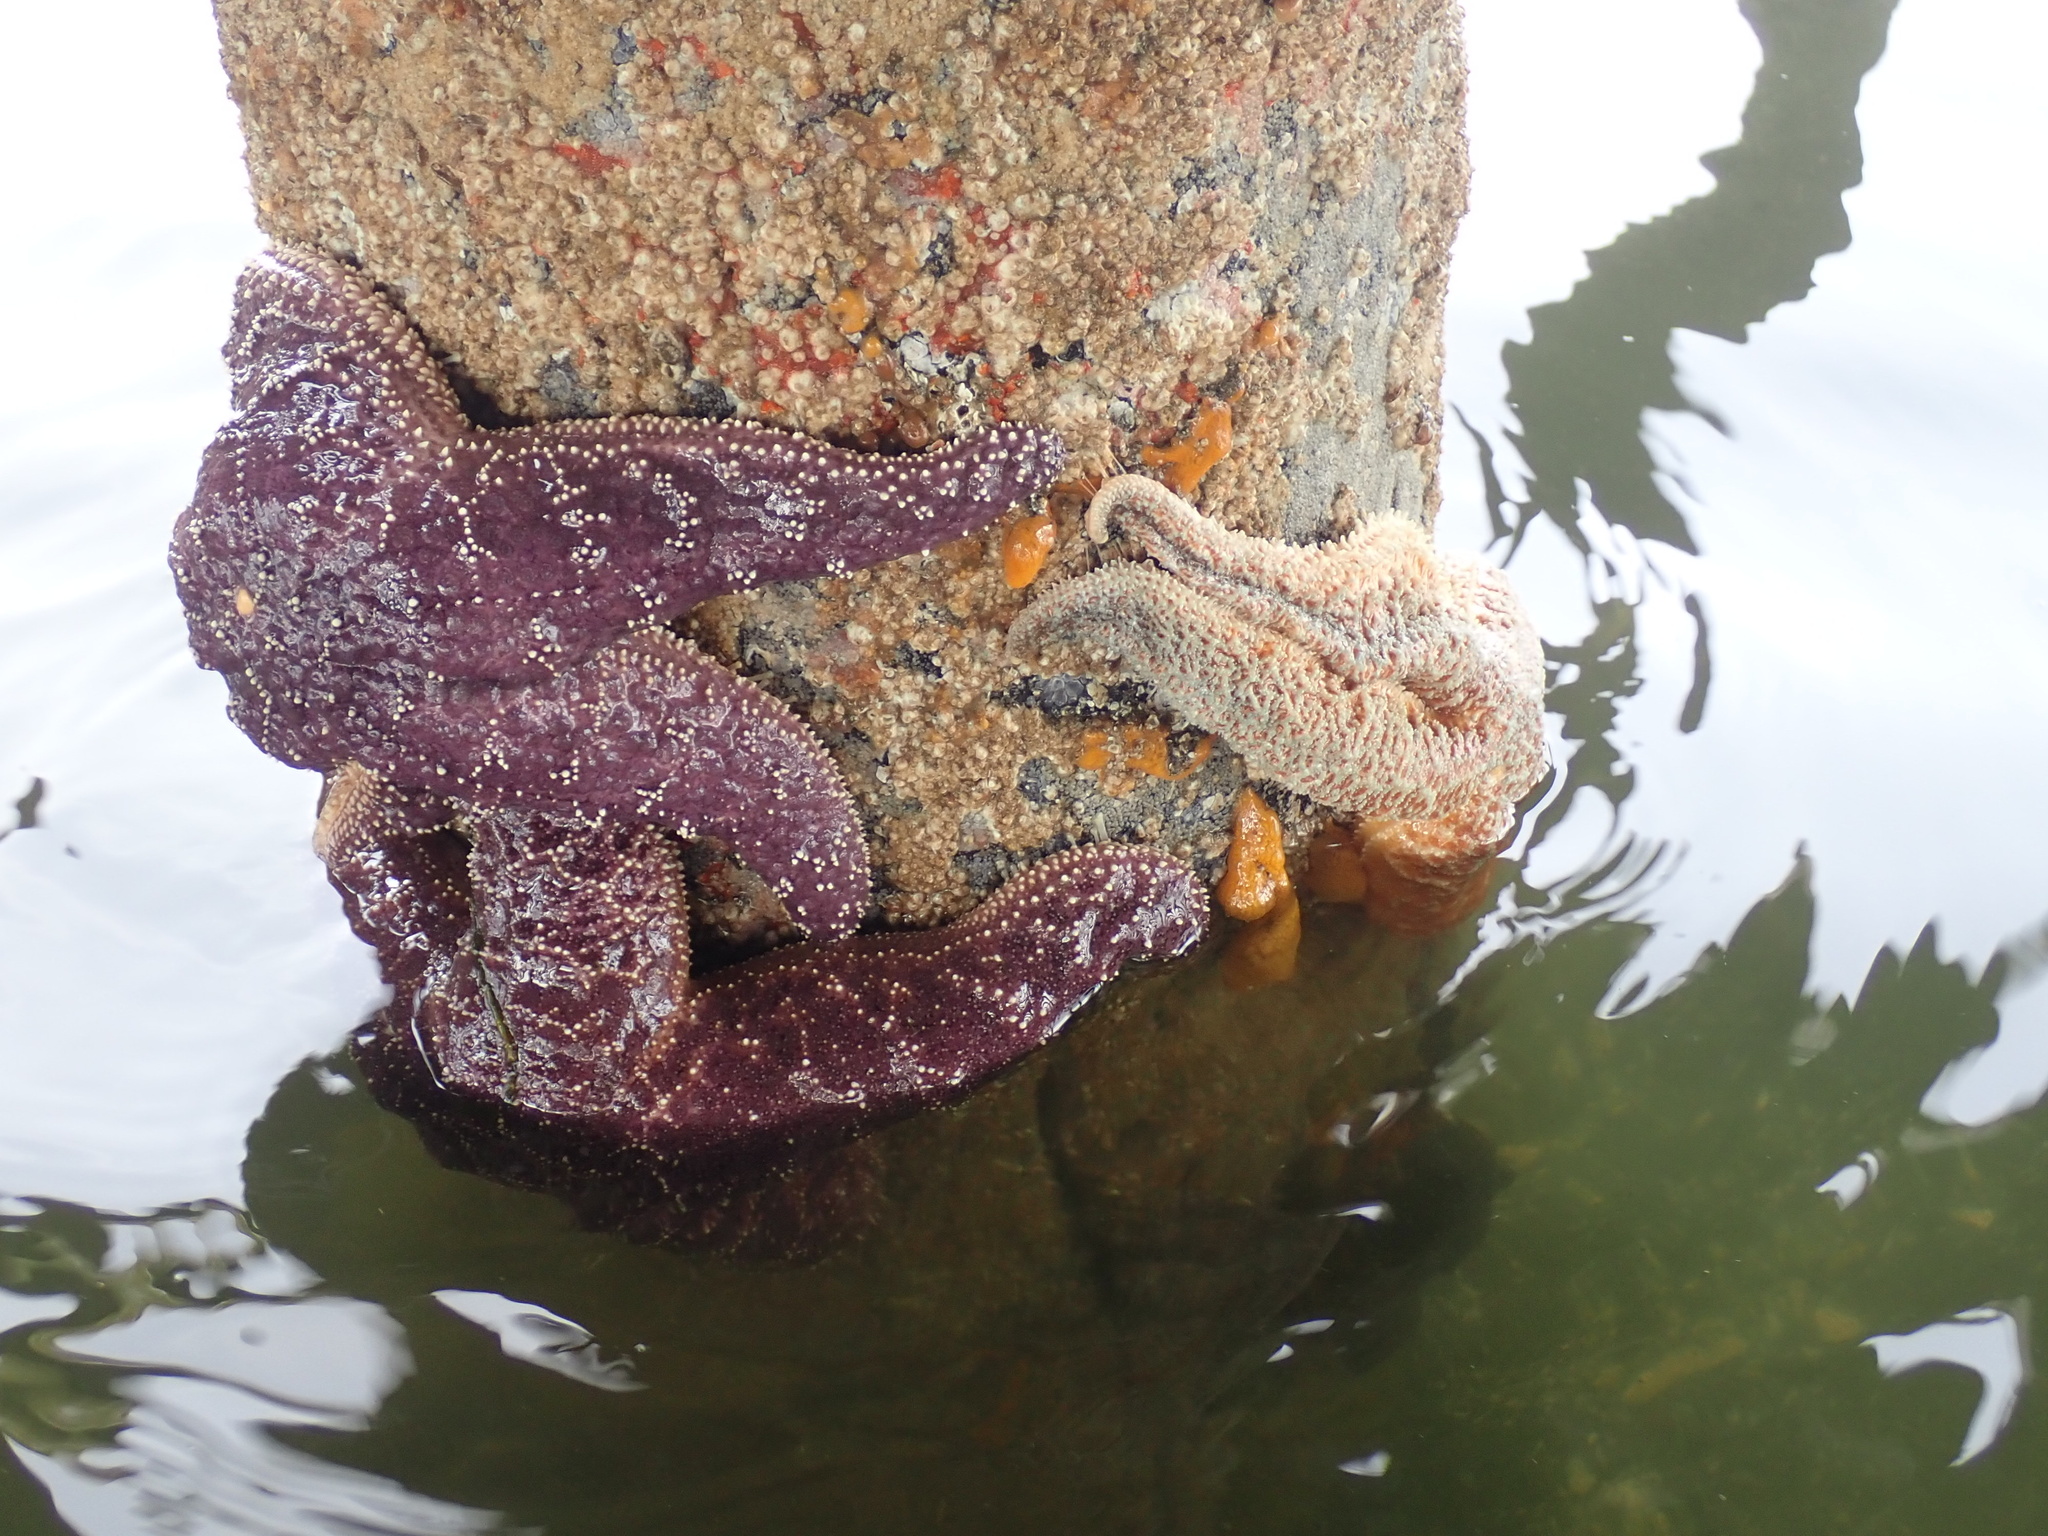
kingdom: Animalia
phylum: Echinodermata
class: Asteroidea
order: Forcipulatida
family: Asteriidae
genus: Pisaster
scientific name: Pisaster ochraceus
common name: Ochre stars
